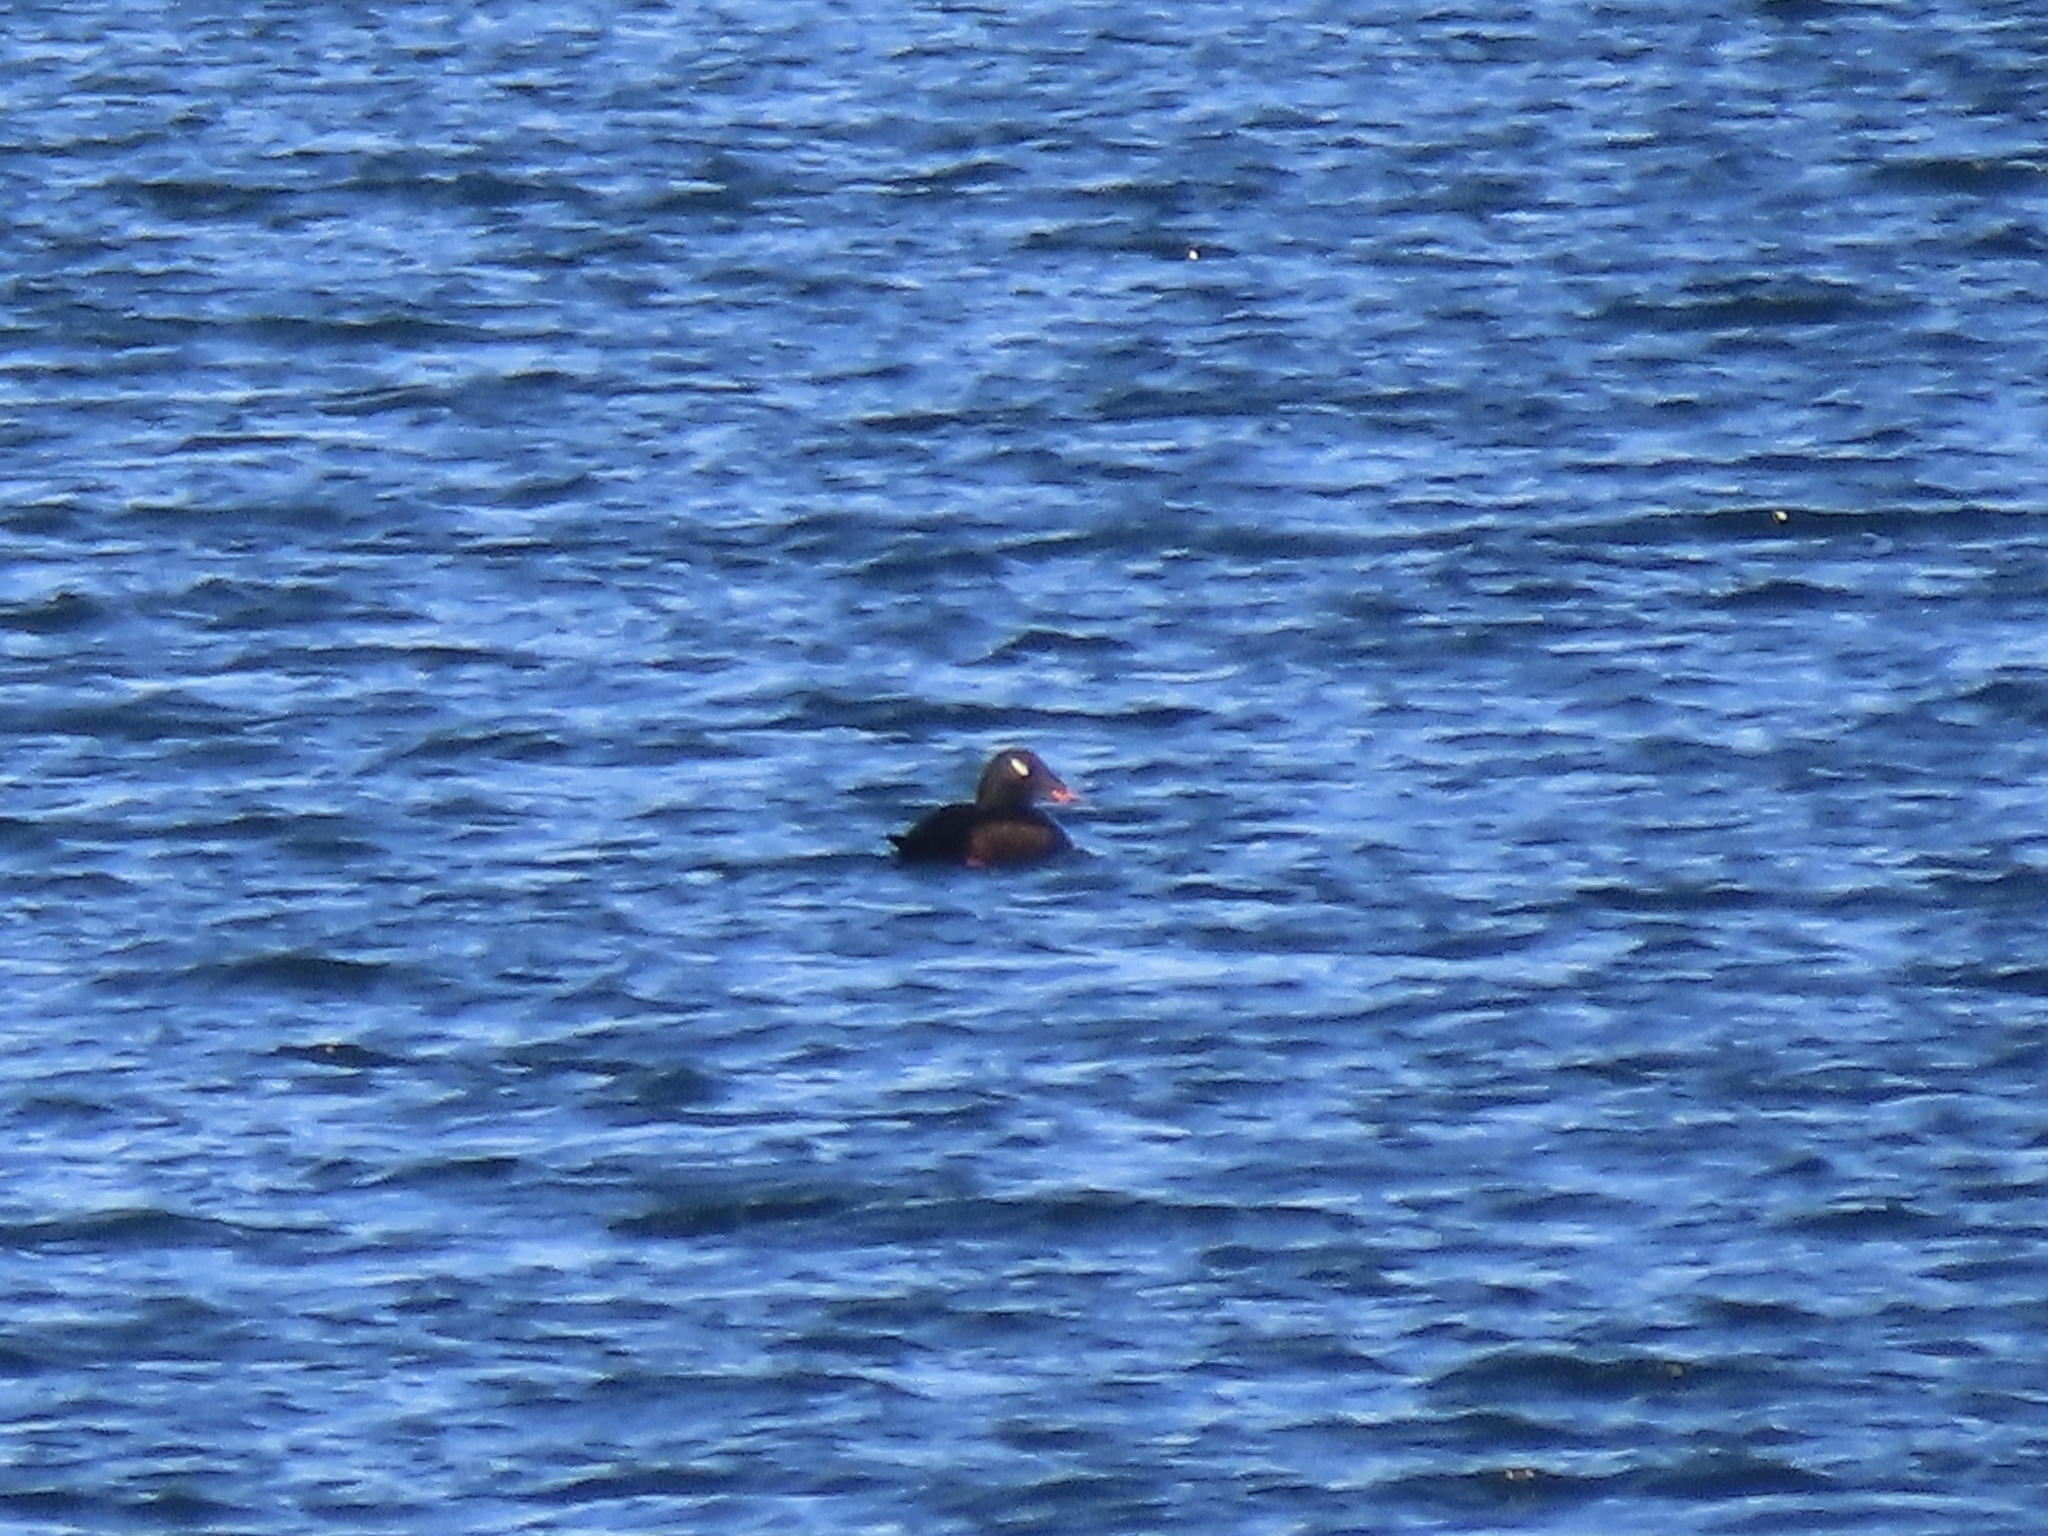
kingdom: Animalia
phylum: Chordata
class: Aves
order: Anseriformes
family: Anatidae
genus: Melanitta
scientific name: Melanitta deglandi
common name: White-winged scoter
